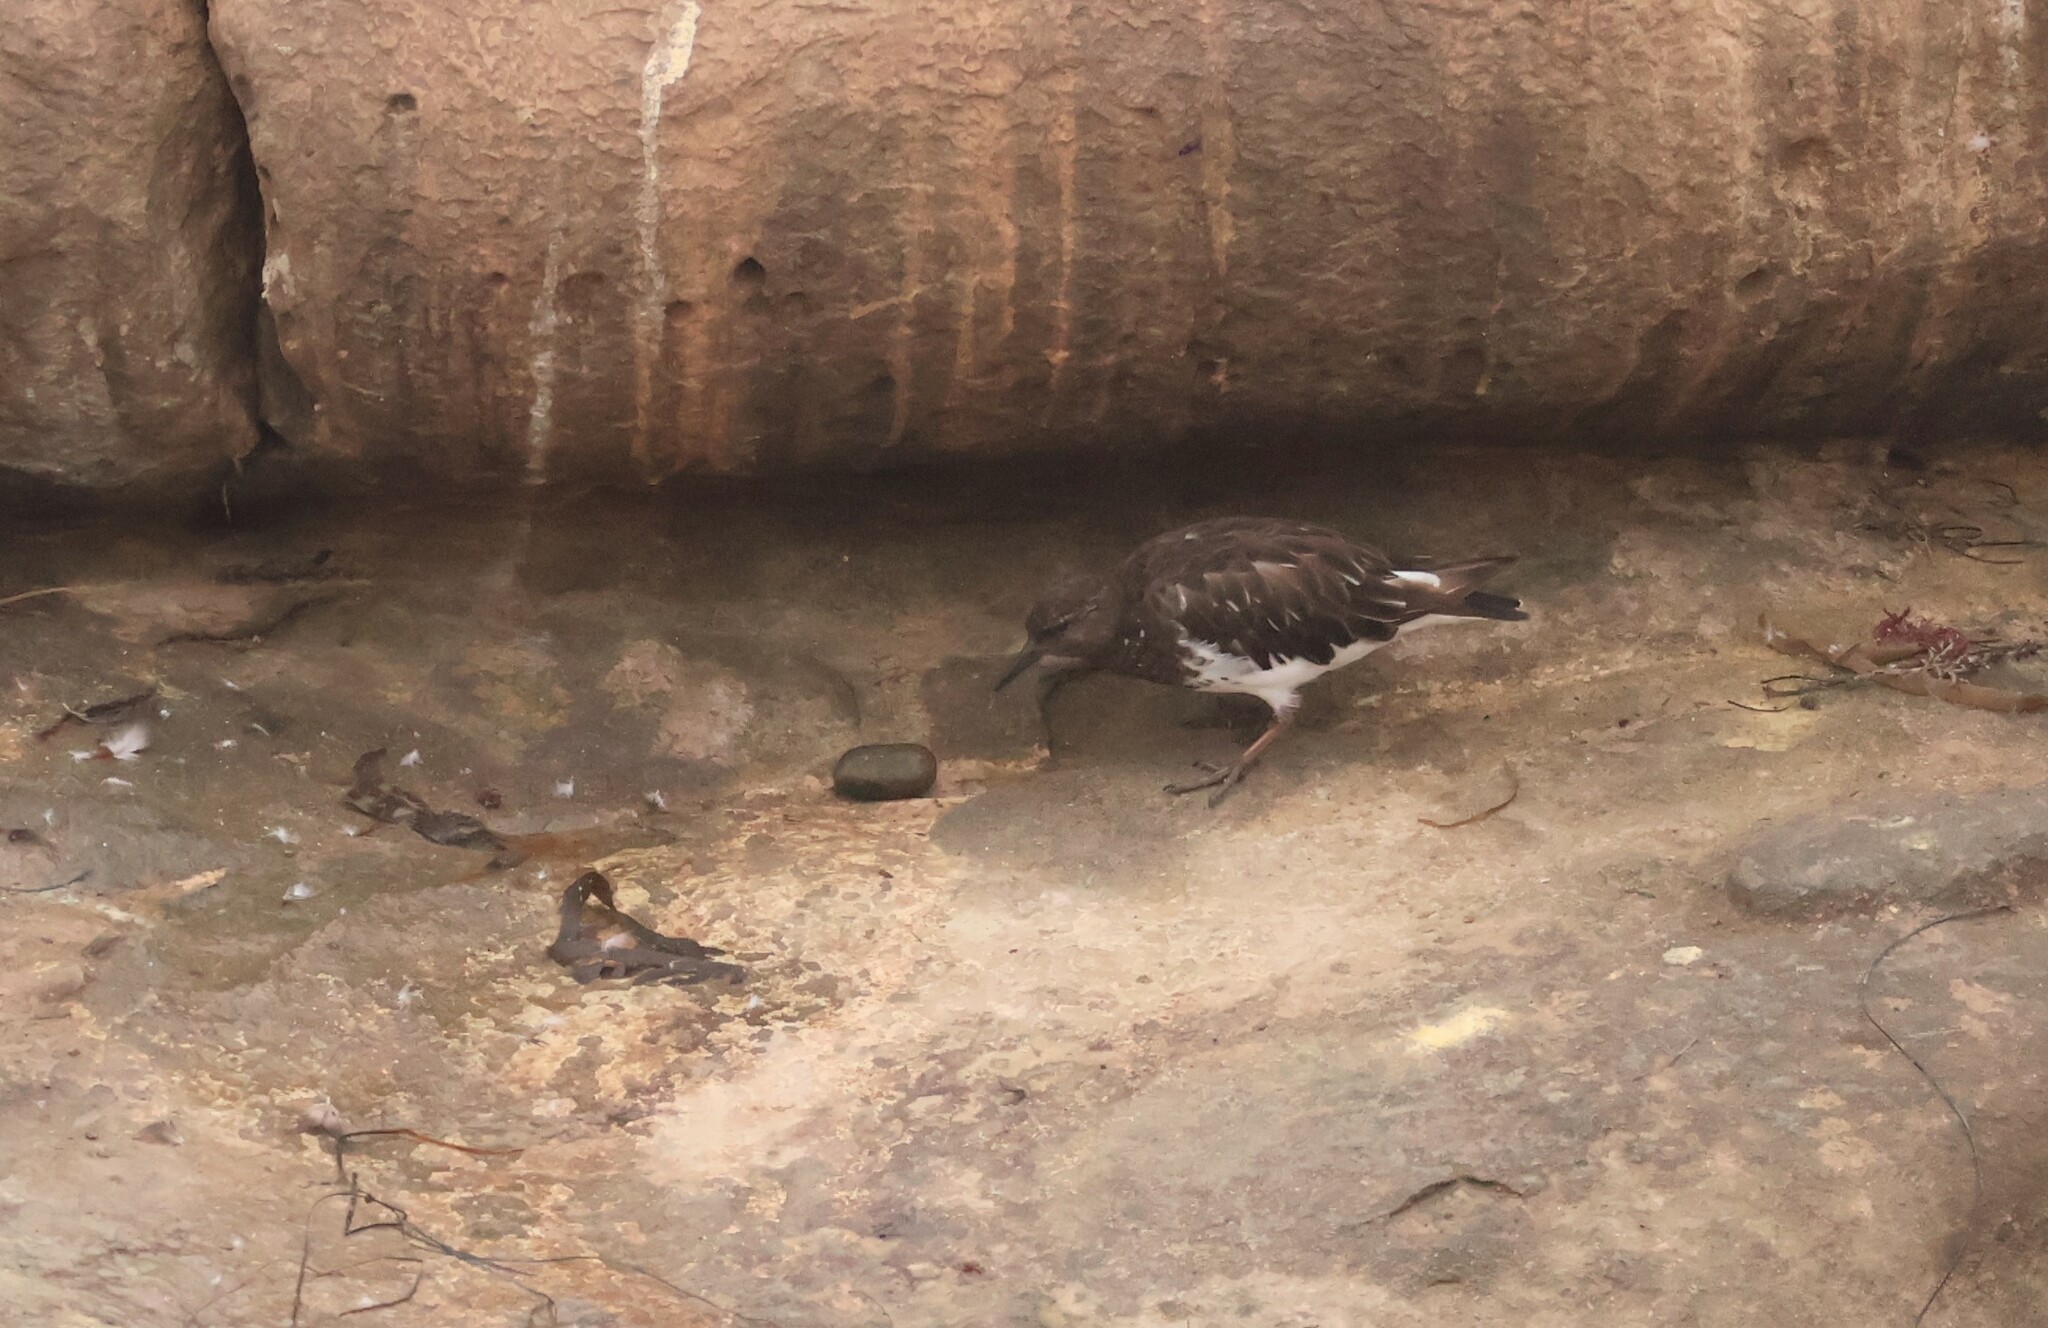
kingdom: Animalia
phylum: Chordata
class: Aves
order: Charadriiformes
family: Scolopacidae
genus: Arenaria
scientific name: Arenaria melanocephala
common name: Black turnstone
